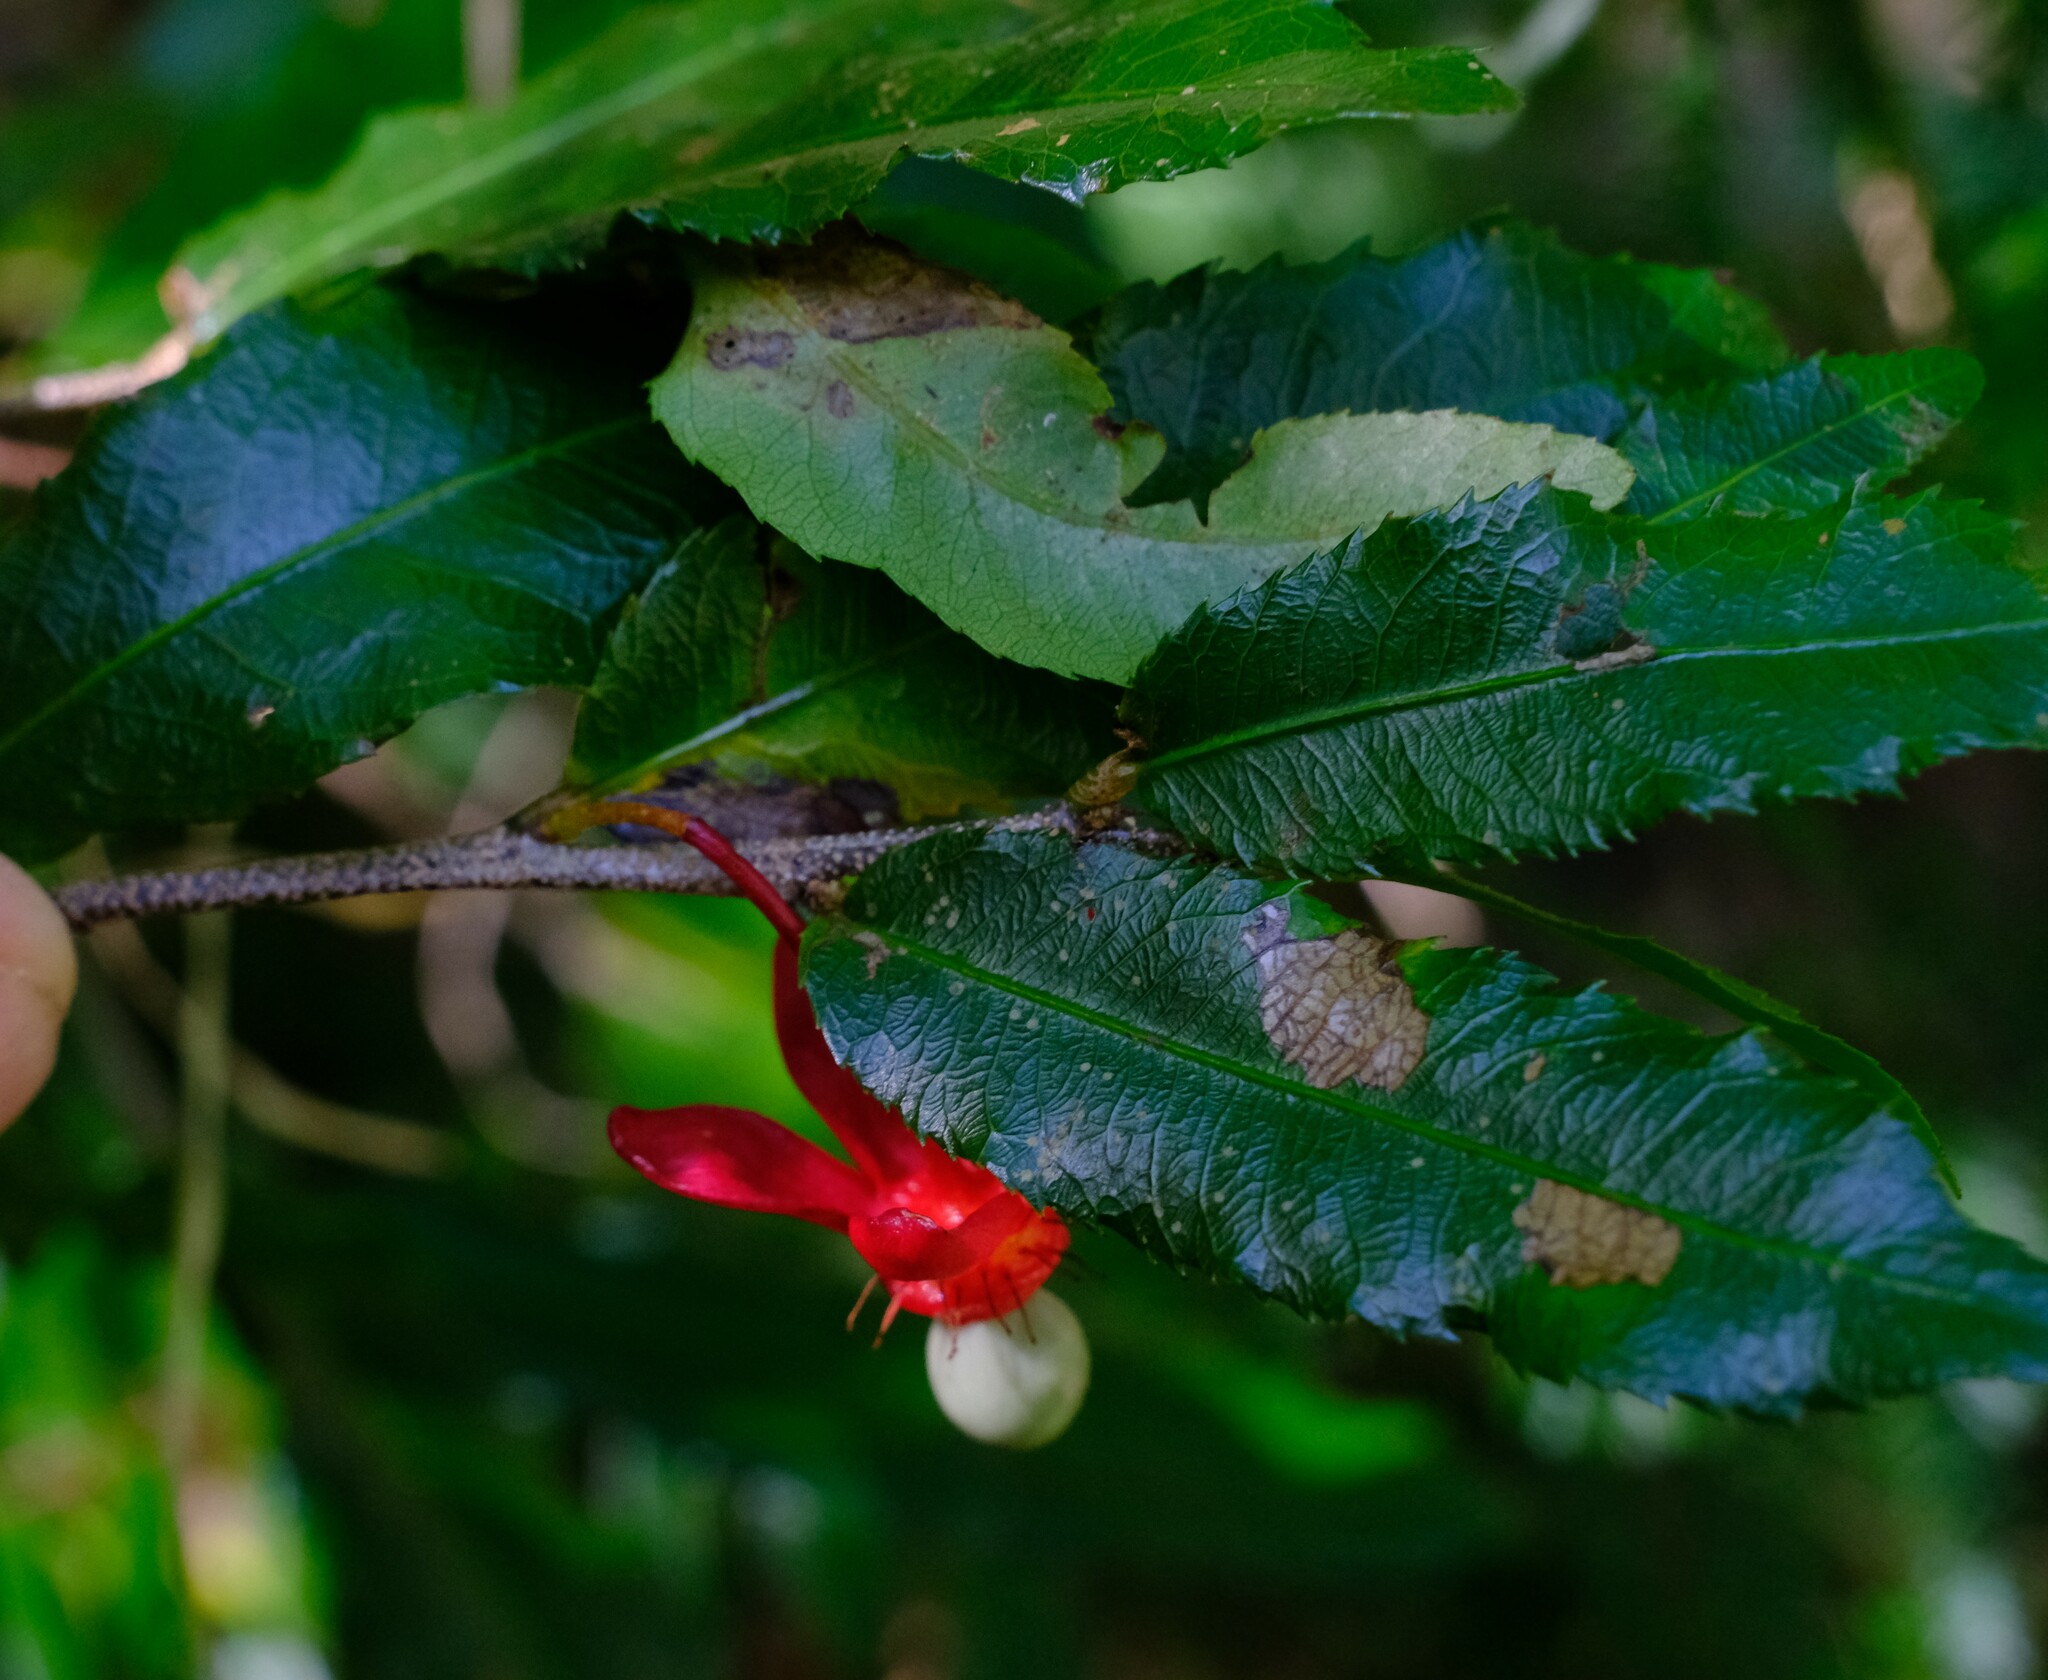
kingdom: Plantae
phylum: Tracheophyta
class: Magnoliopsida
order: Malpighiales
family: Ochnaceae
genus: Ochna
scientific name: Ochna serrulata
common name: Mickey mouse plant
